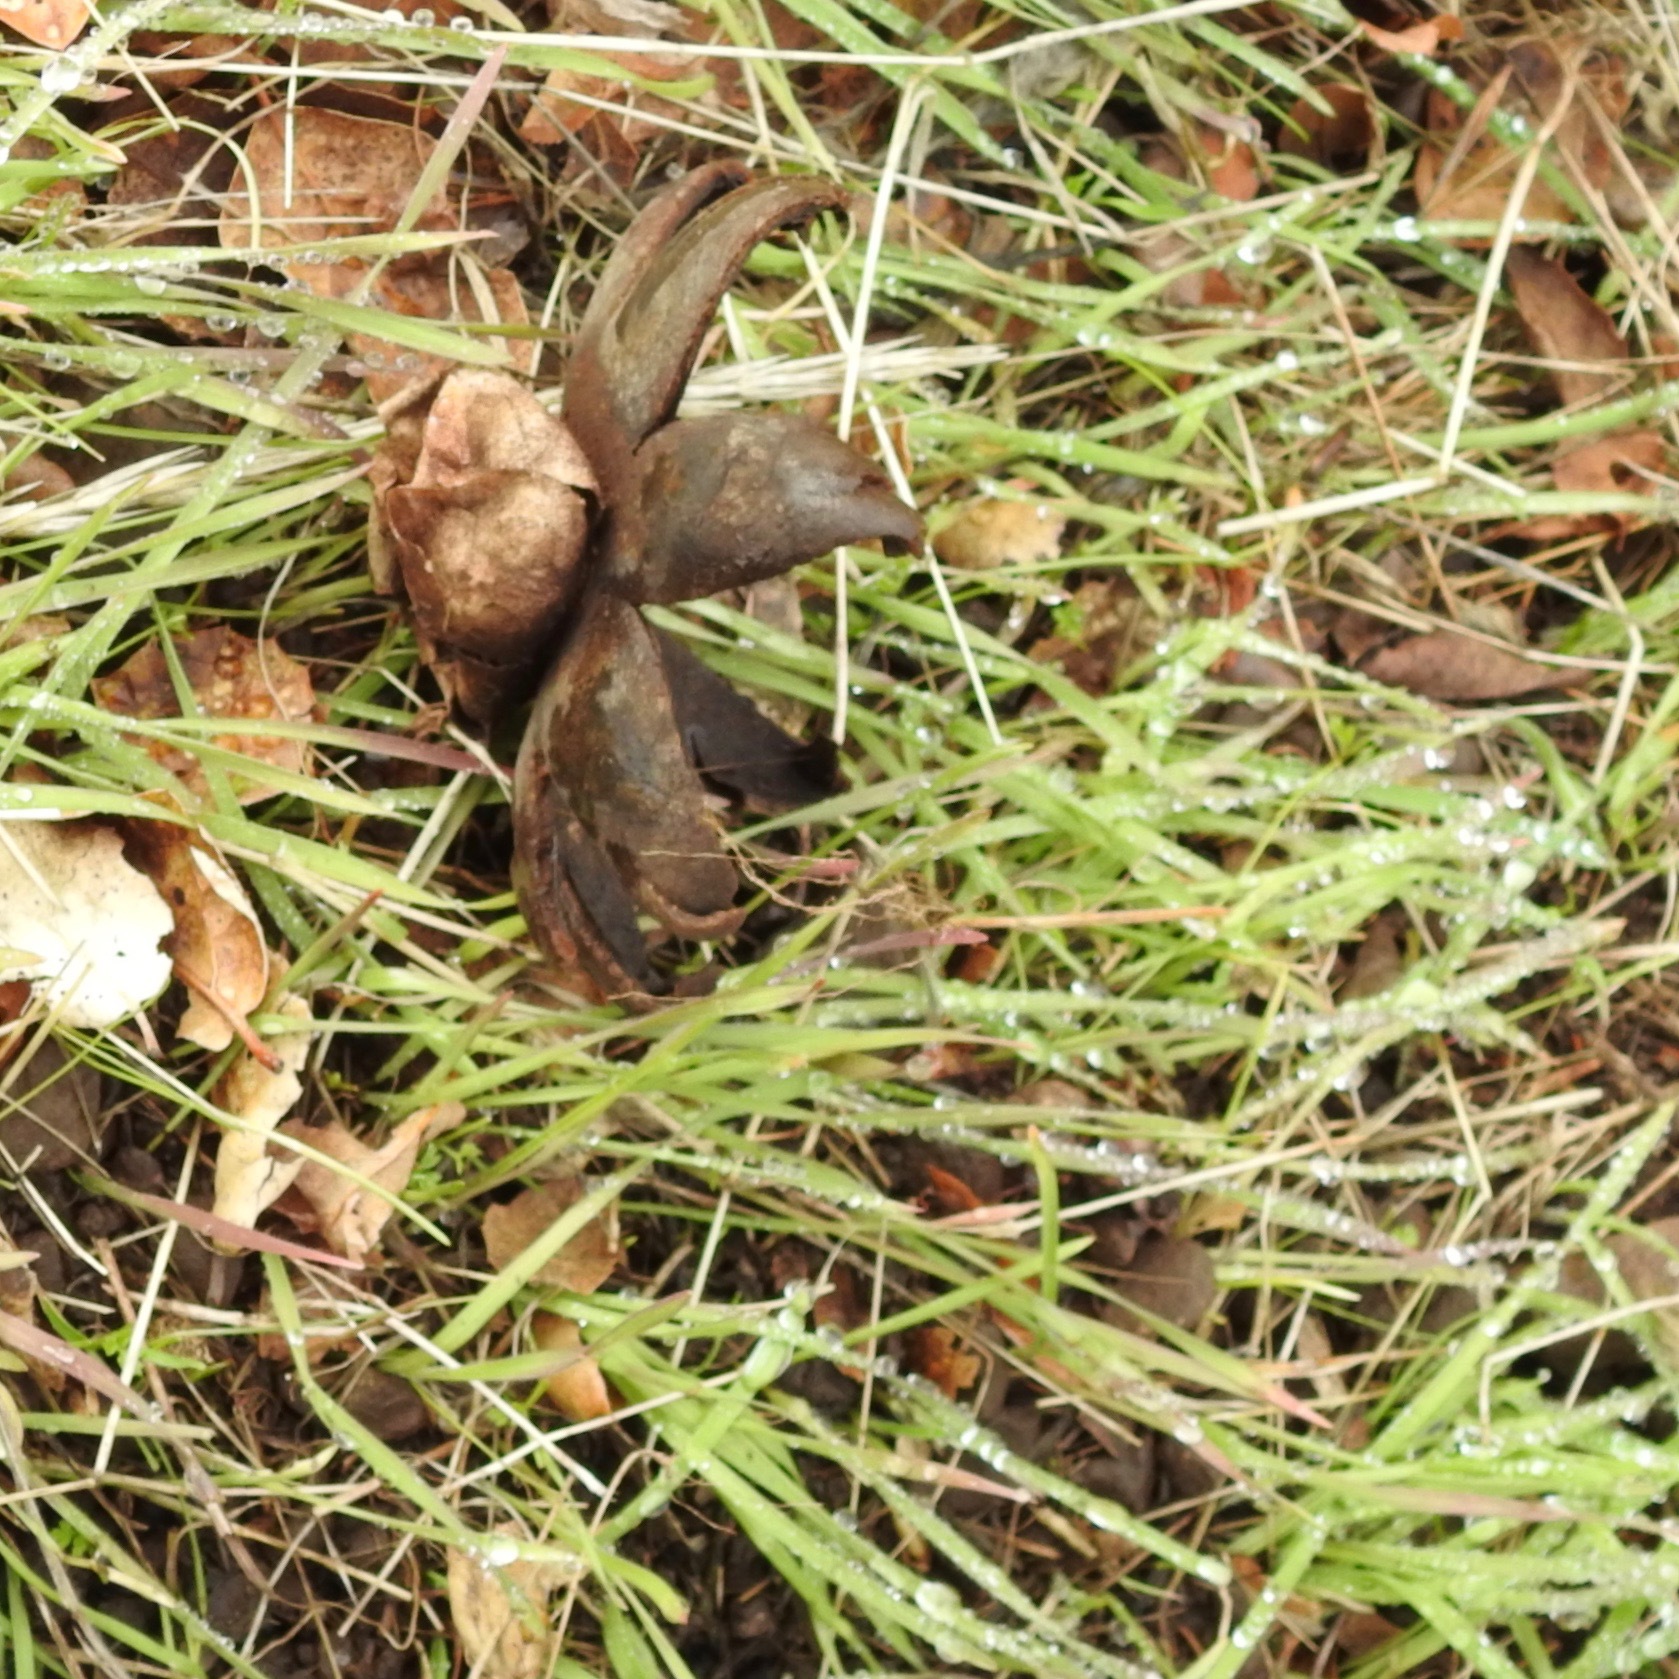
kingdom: Fungi
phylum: Basidiomycota
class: Agaricomycetes
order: Boletales
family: Diplocystidiaceae
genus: Astraeus
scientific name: Astraeus hygrometricus
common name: Barometer earthstar
